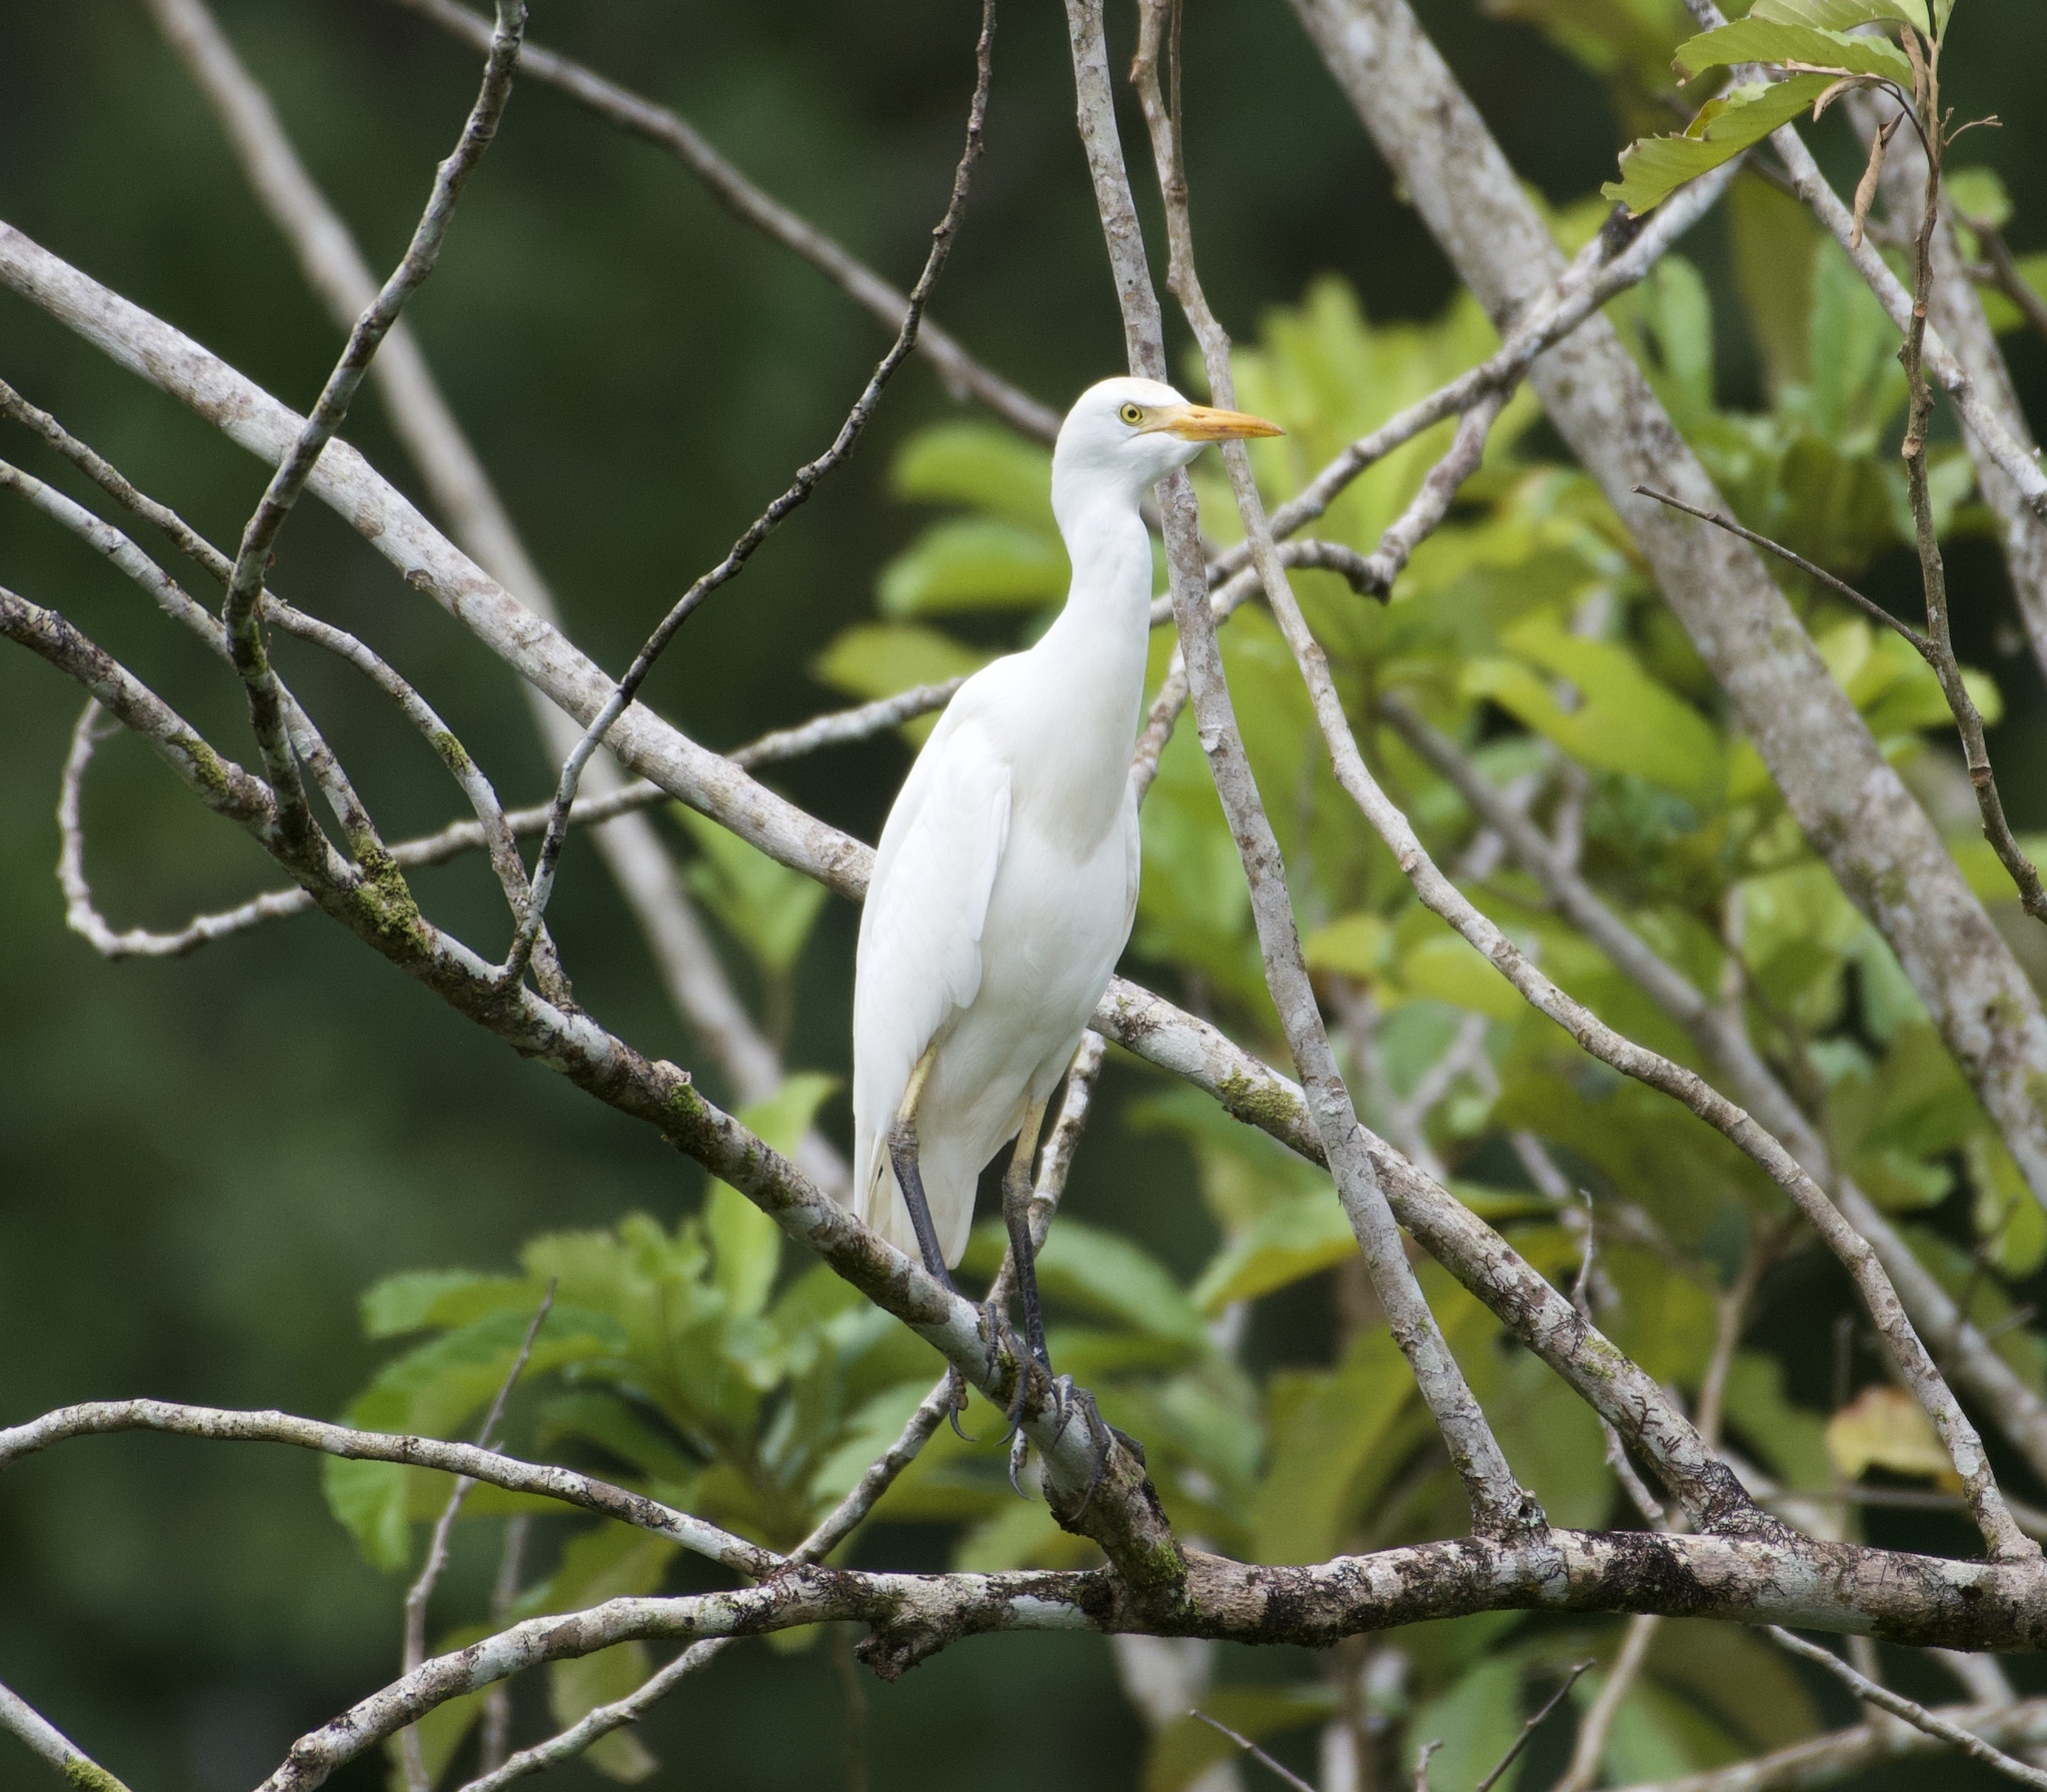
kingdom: Animalia
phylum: Chordata
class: Aves
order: Pelecaniformes
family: Ardeidae
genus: Bubulcus
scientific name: Bubulcus ibis
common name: Cattle egret
